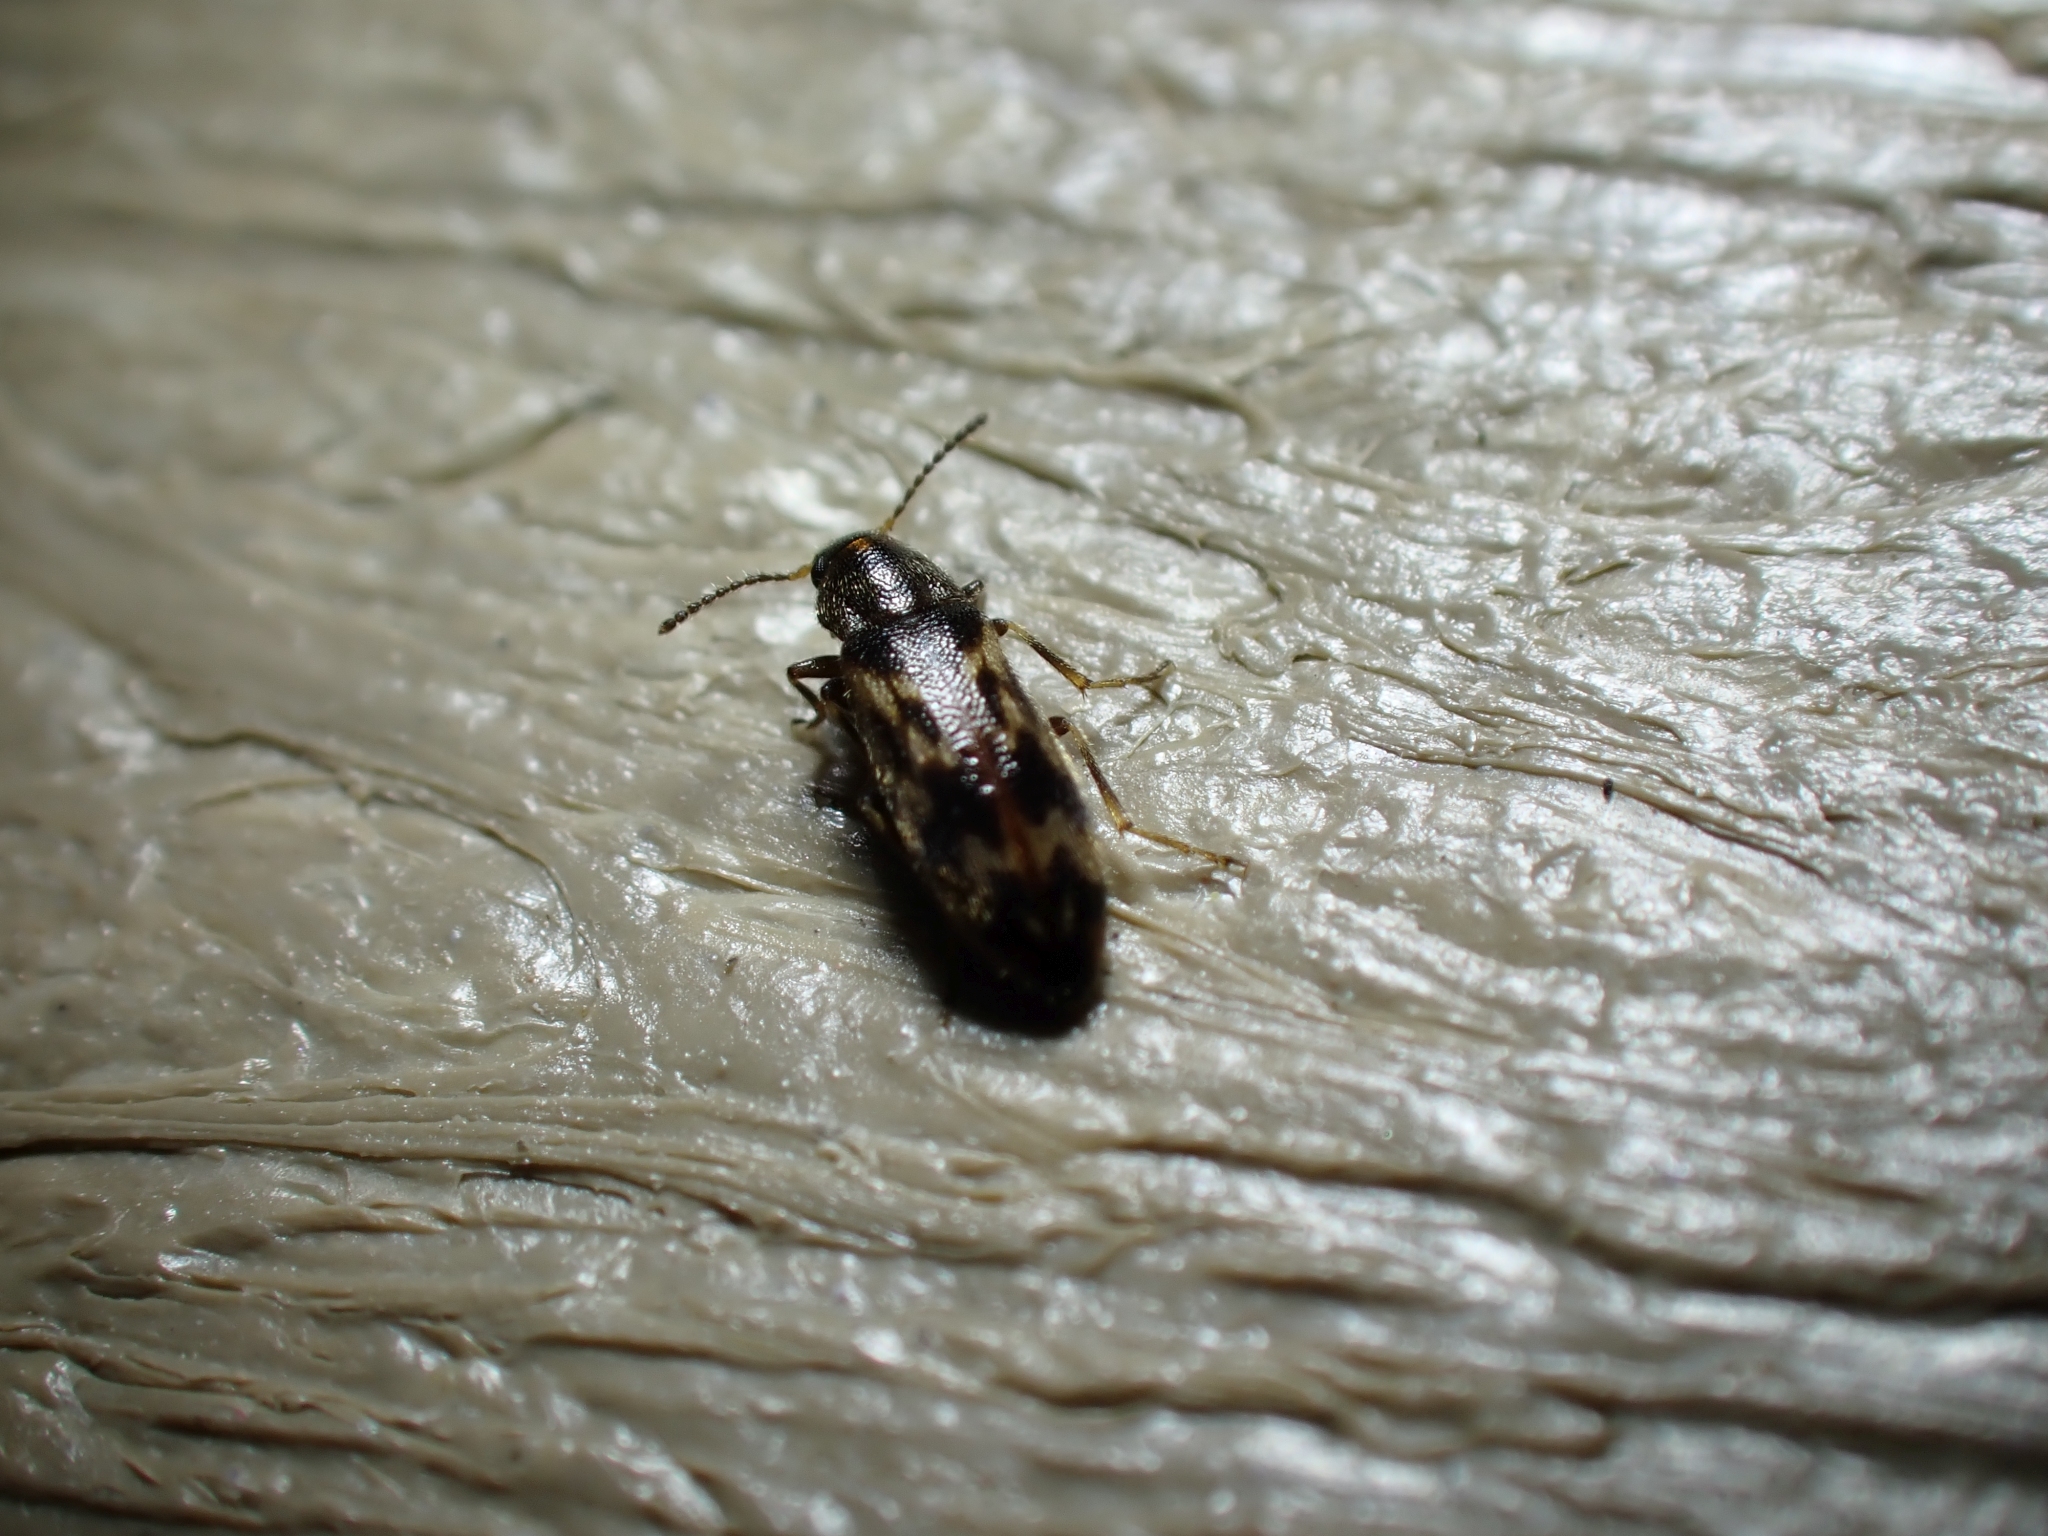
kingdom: Animalia
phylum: Arthropoda
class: Insecta
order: Coleoptera
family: Melandryidae
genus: Prothalpia
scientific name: Prothalpia holmbergi
